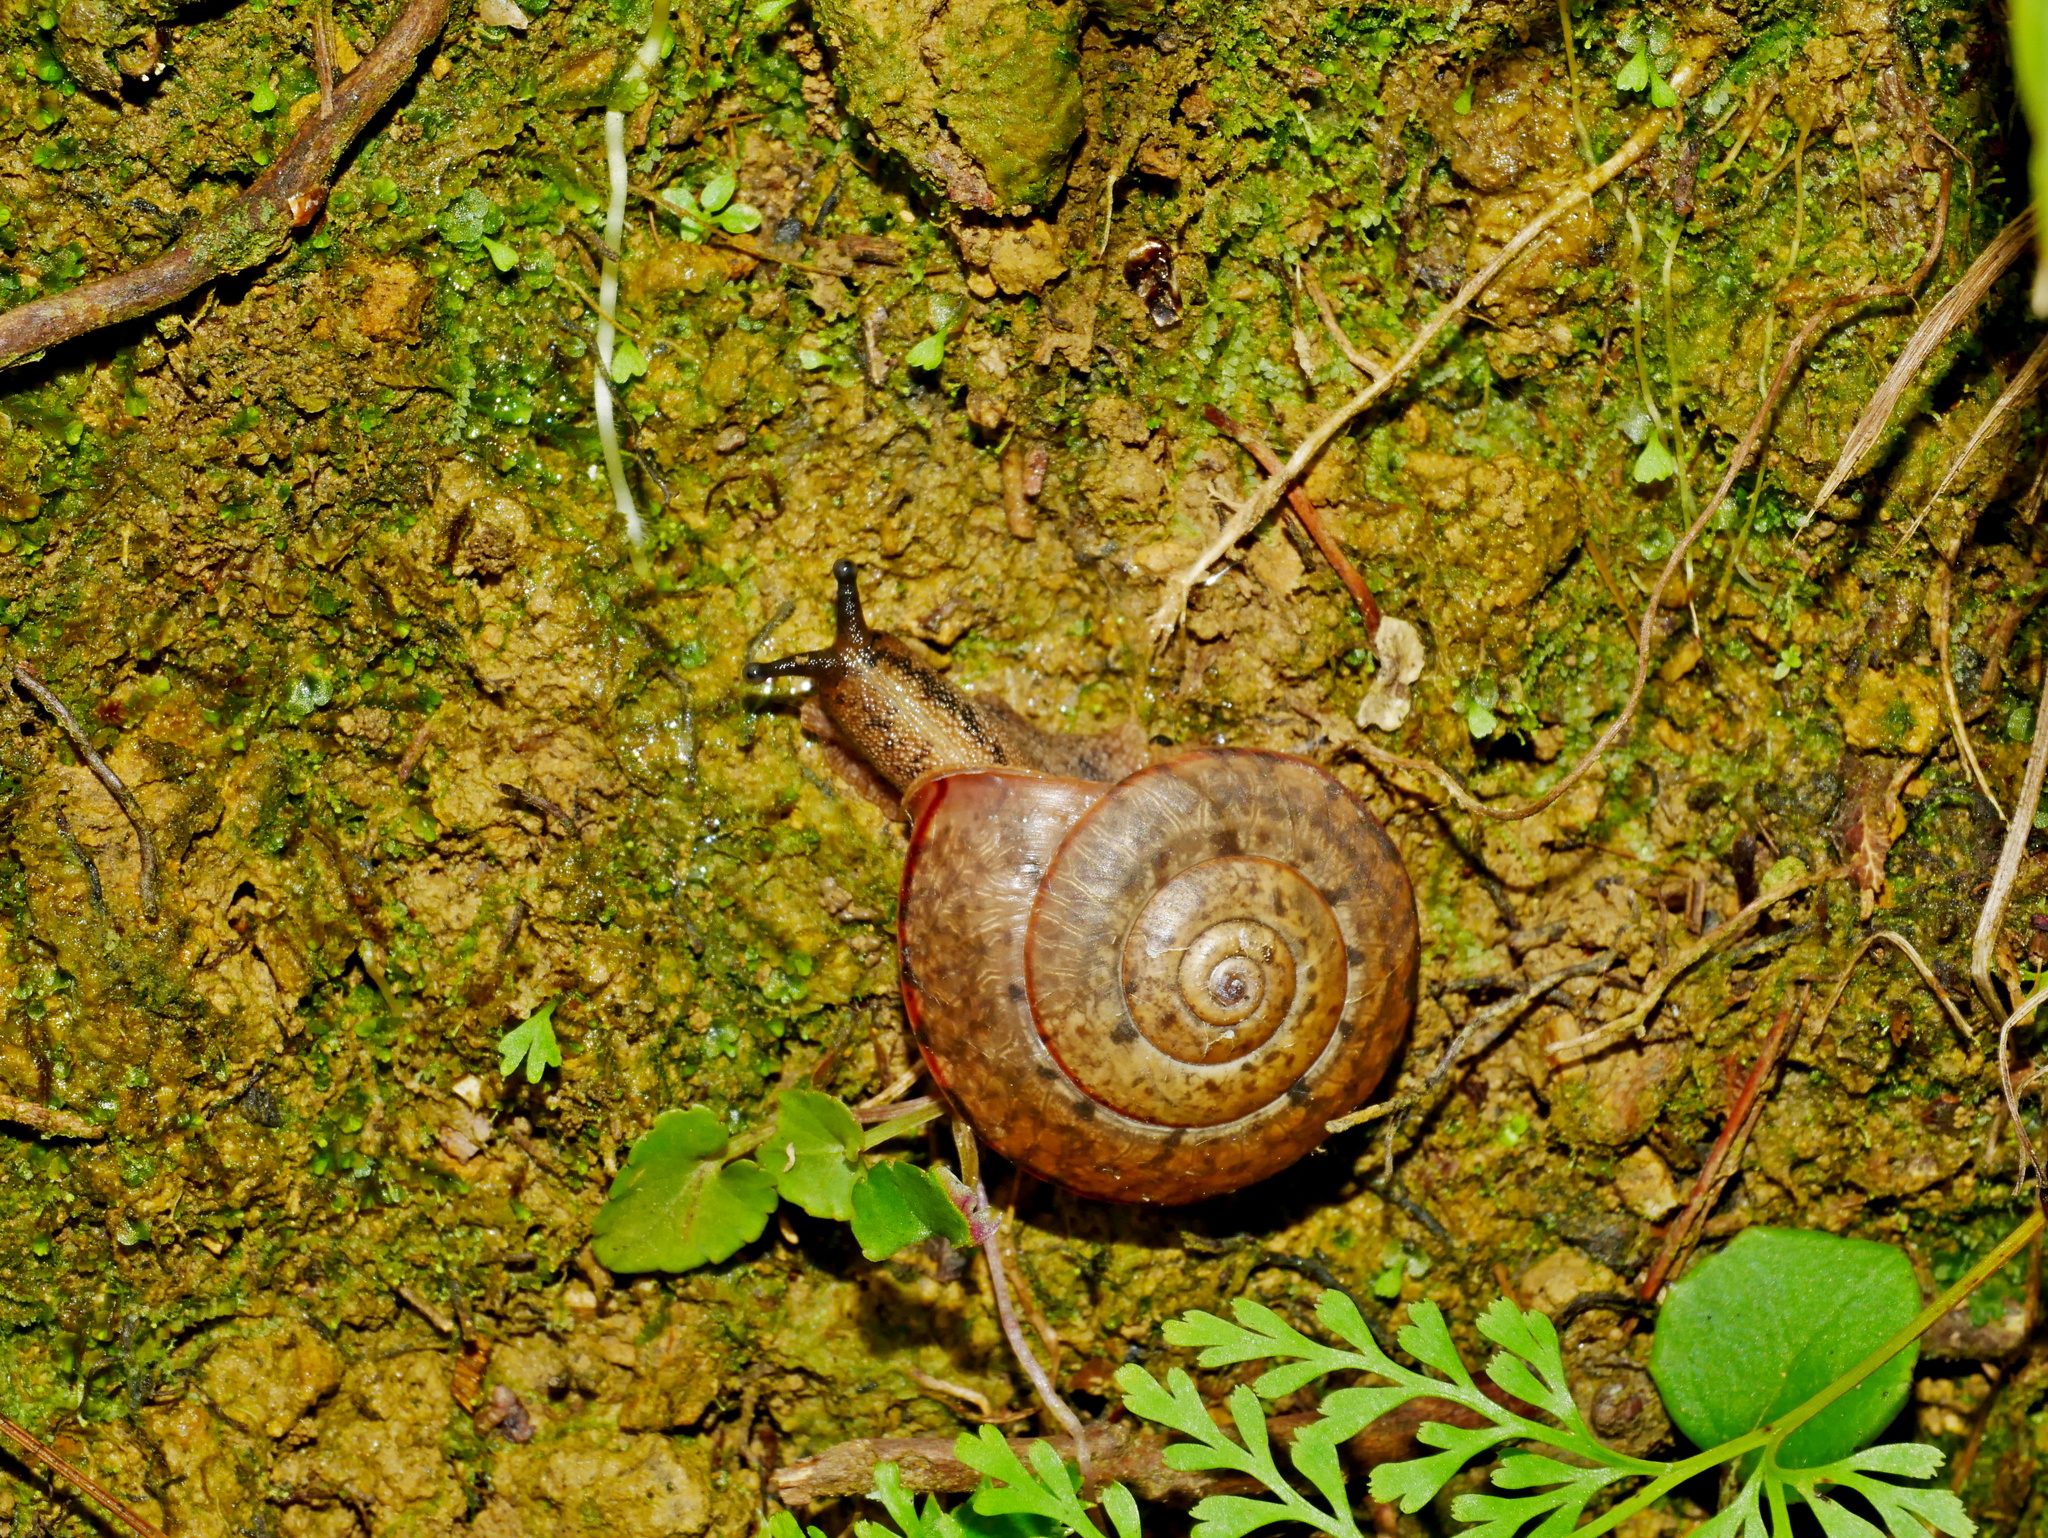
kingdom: Animalia
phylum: Mollusca
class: Gastropoda
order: Stylommatophora
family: Camaenidae
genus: Satsuma
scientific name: Satsuma mellea
